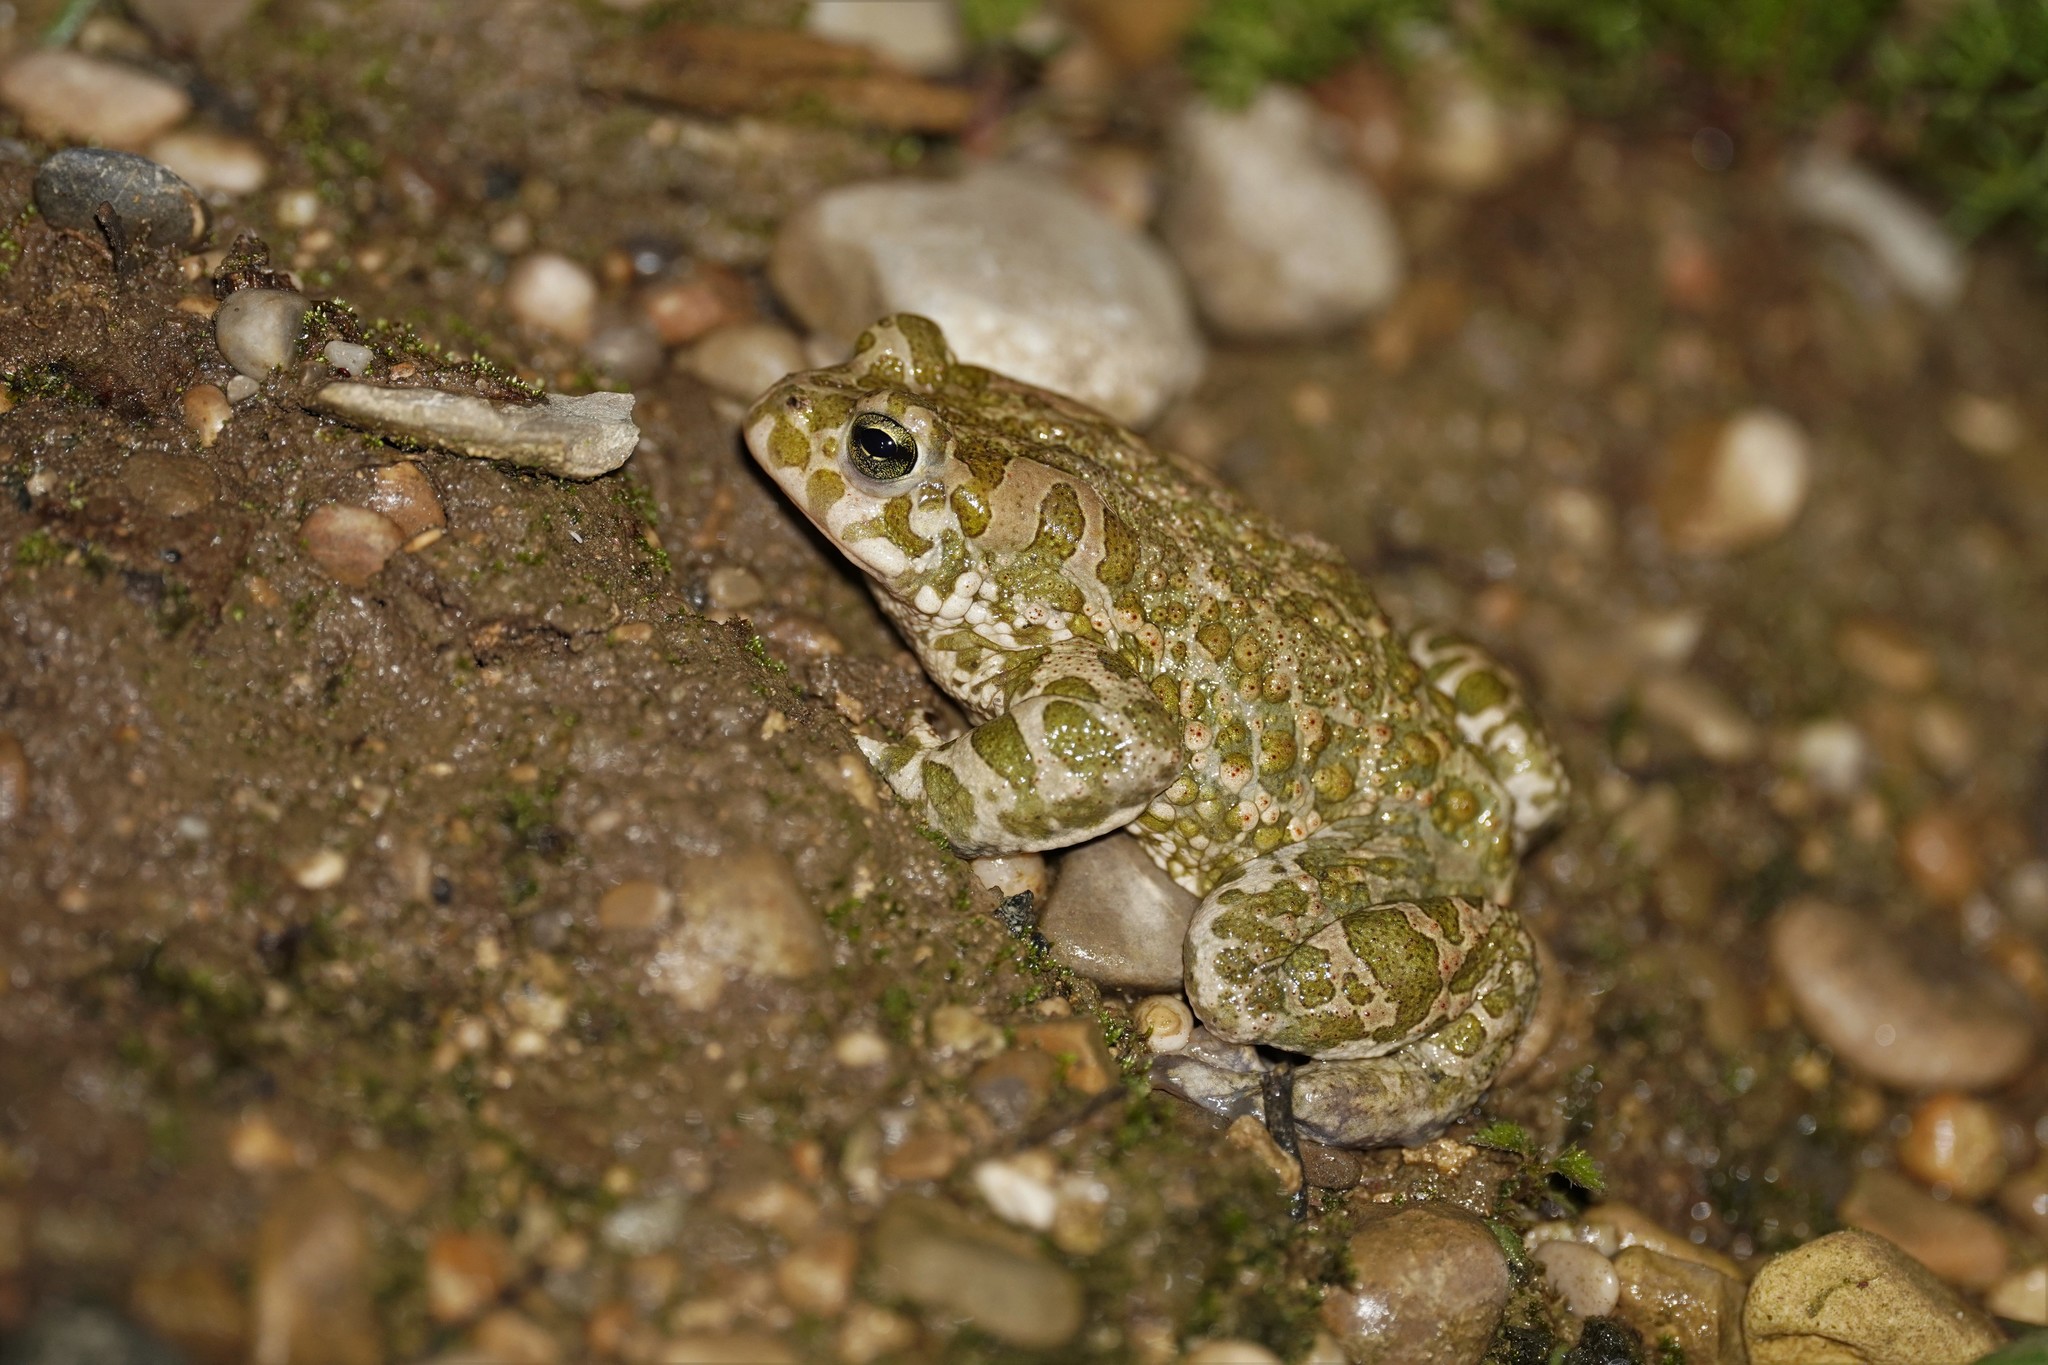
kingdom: Animalia
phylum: Chordata
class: Amphibia
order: Anura
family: Bufonidae
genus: Bufotes
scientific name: Bufotes viridis
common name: European green toad
